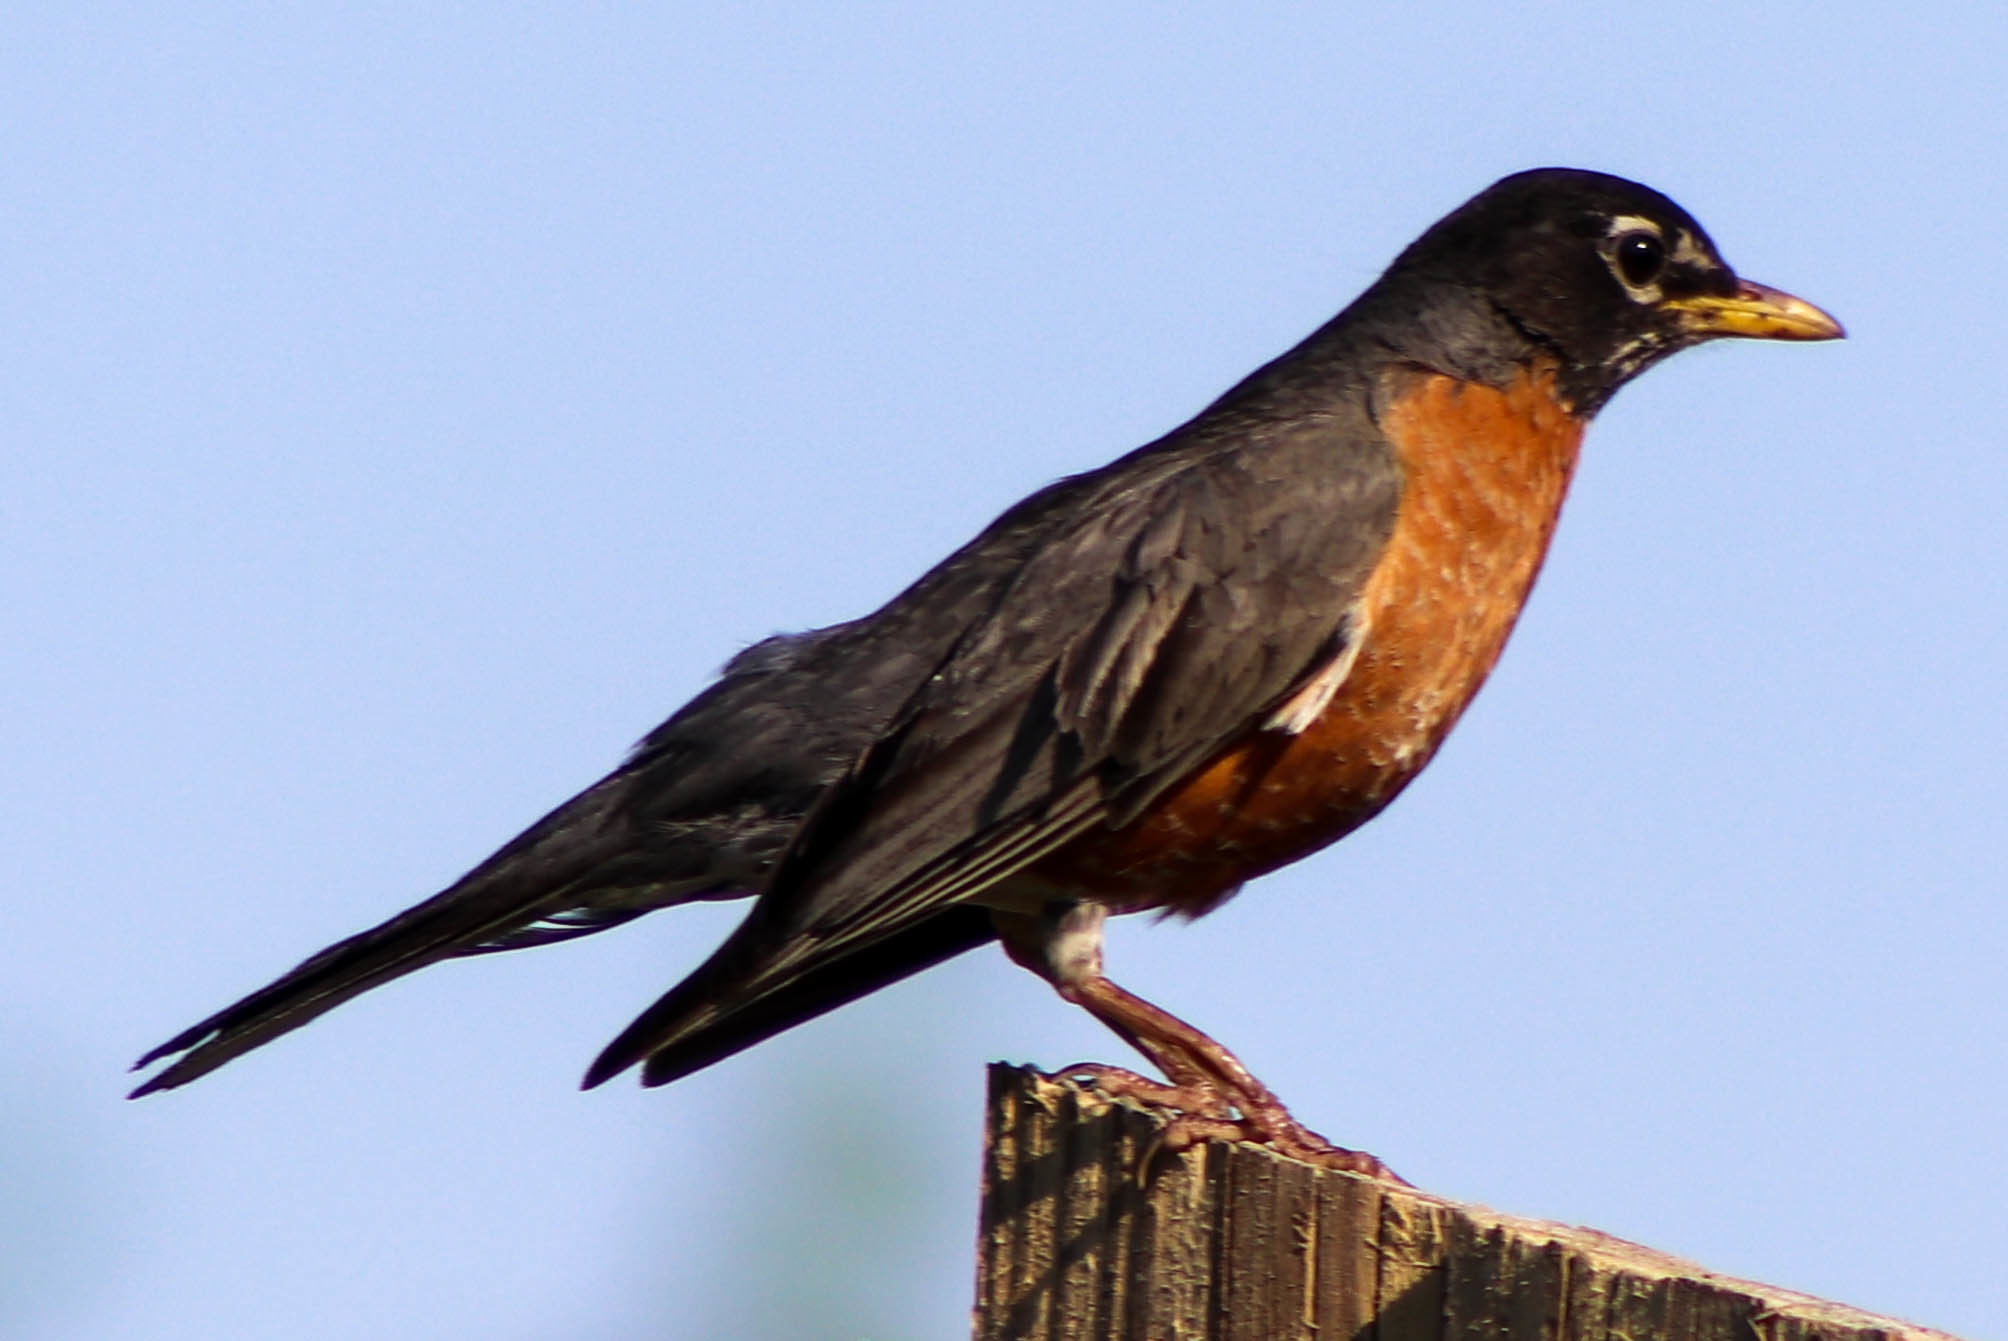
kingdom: Animalia
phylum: Chordata
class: Aves
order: Passeriformes
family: Turdidae
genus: Turdus
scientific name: Turdus migratorius
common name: American robin
